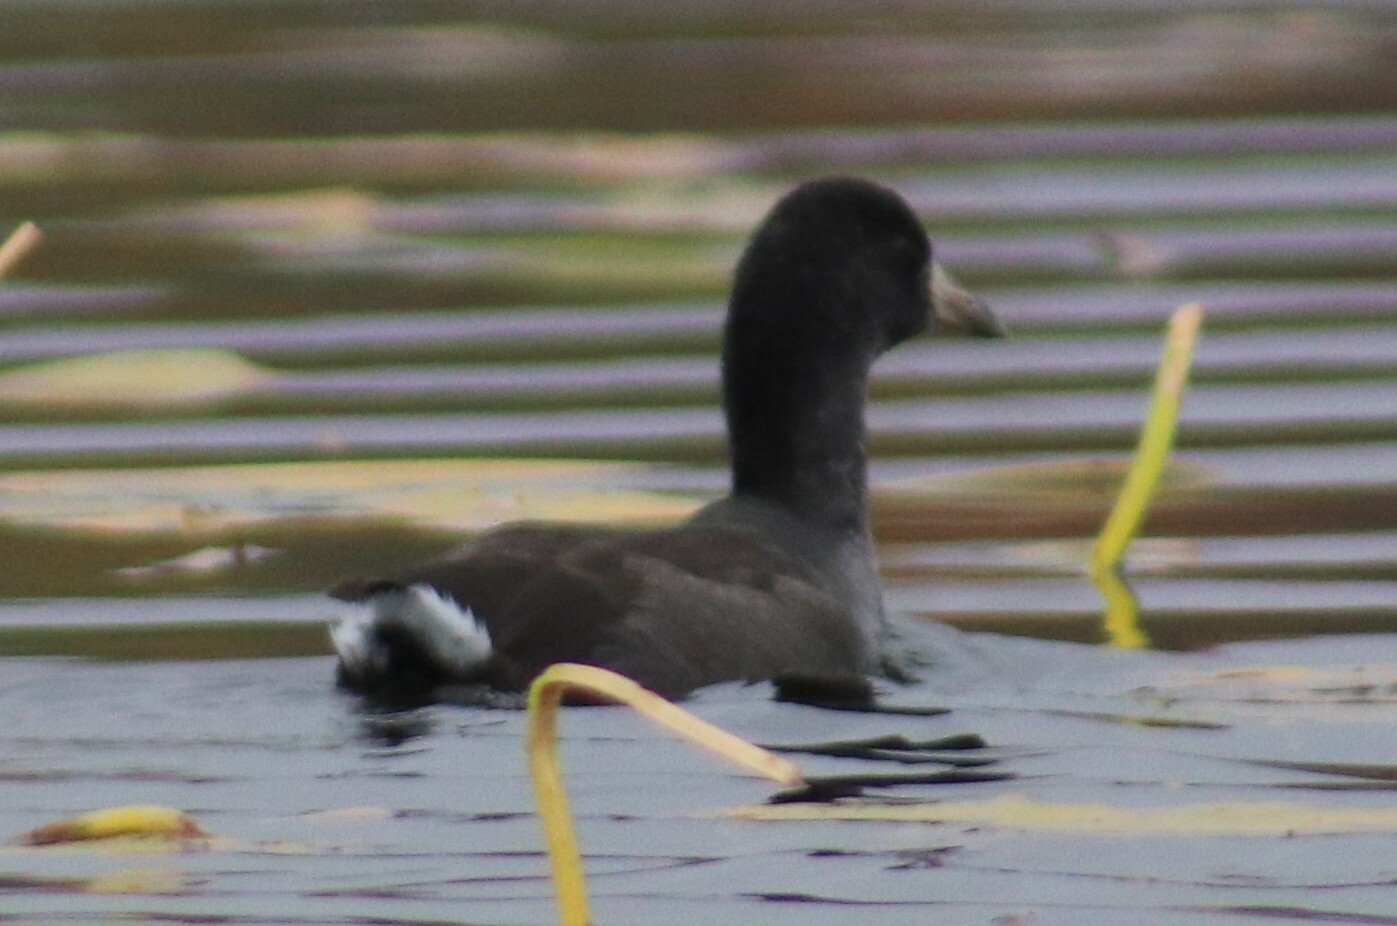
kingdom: Animalia
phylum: Chordata
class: Aves
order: Gruiformes
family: Rallidae
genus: Fulica
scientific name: Fulica americana
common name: American coot
